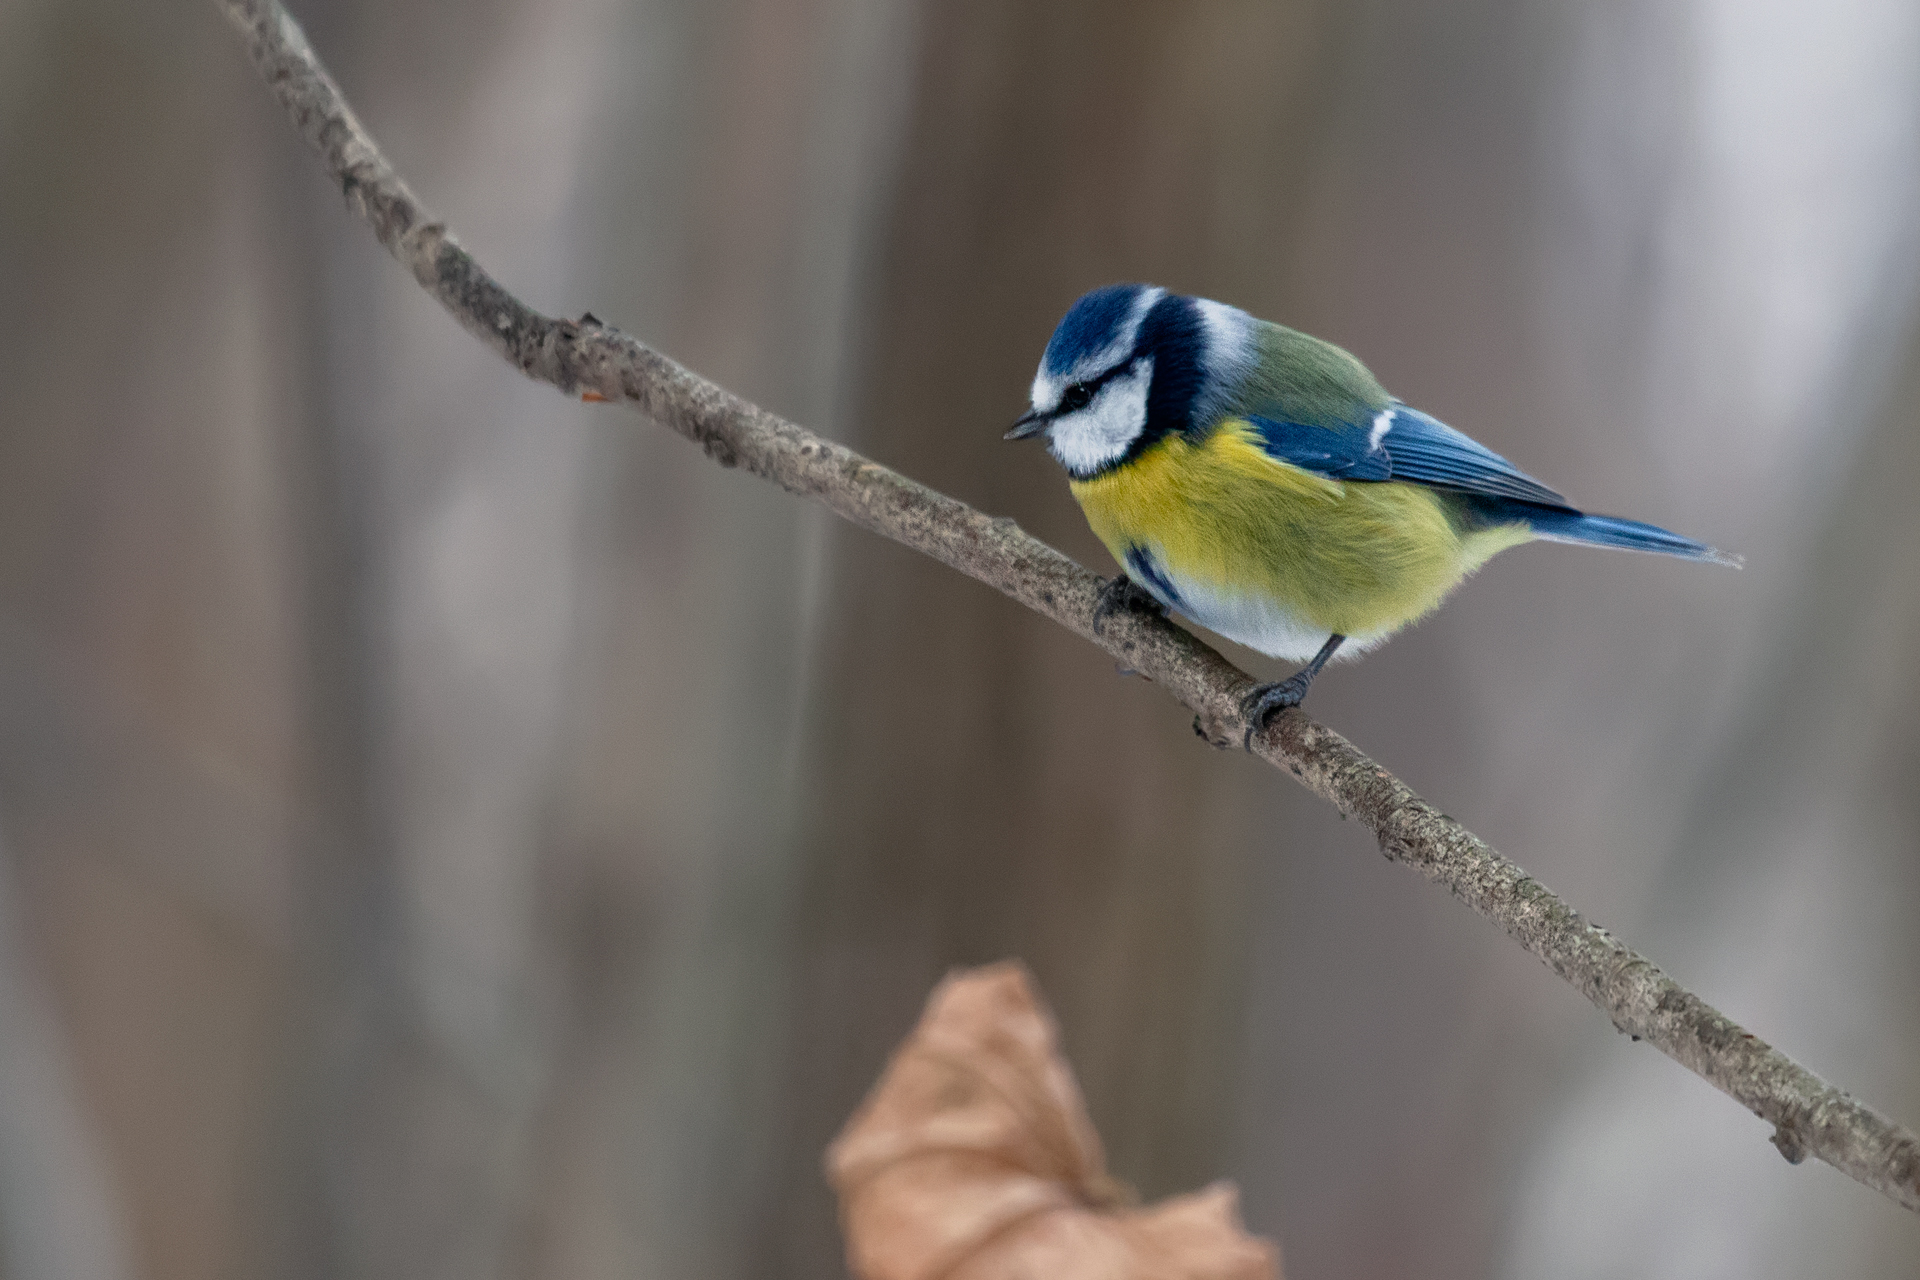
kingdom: Animalia
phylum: Chordata
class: Aves
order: Passeriformes
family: Paridae
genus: Cyanistes
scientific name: Cyanistes caeruleus
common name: Eurasian blue tit
